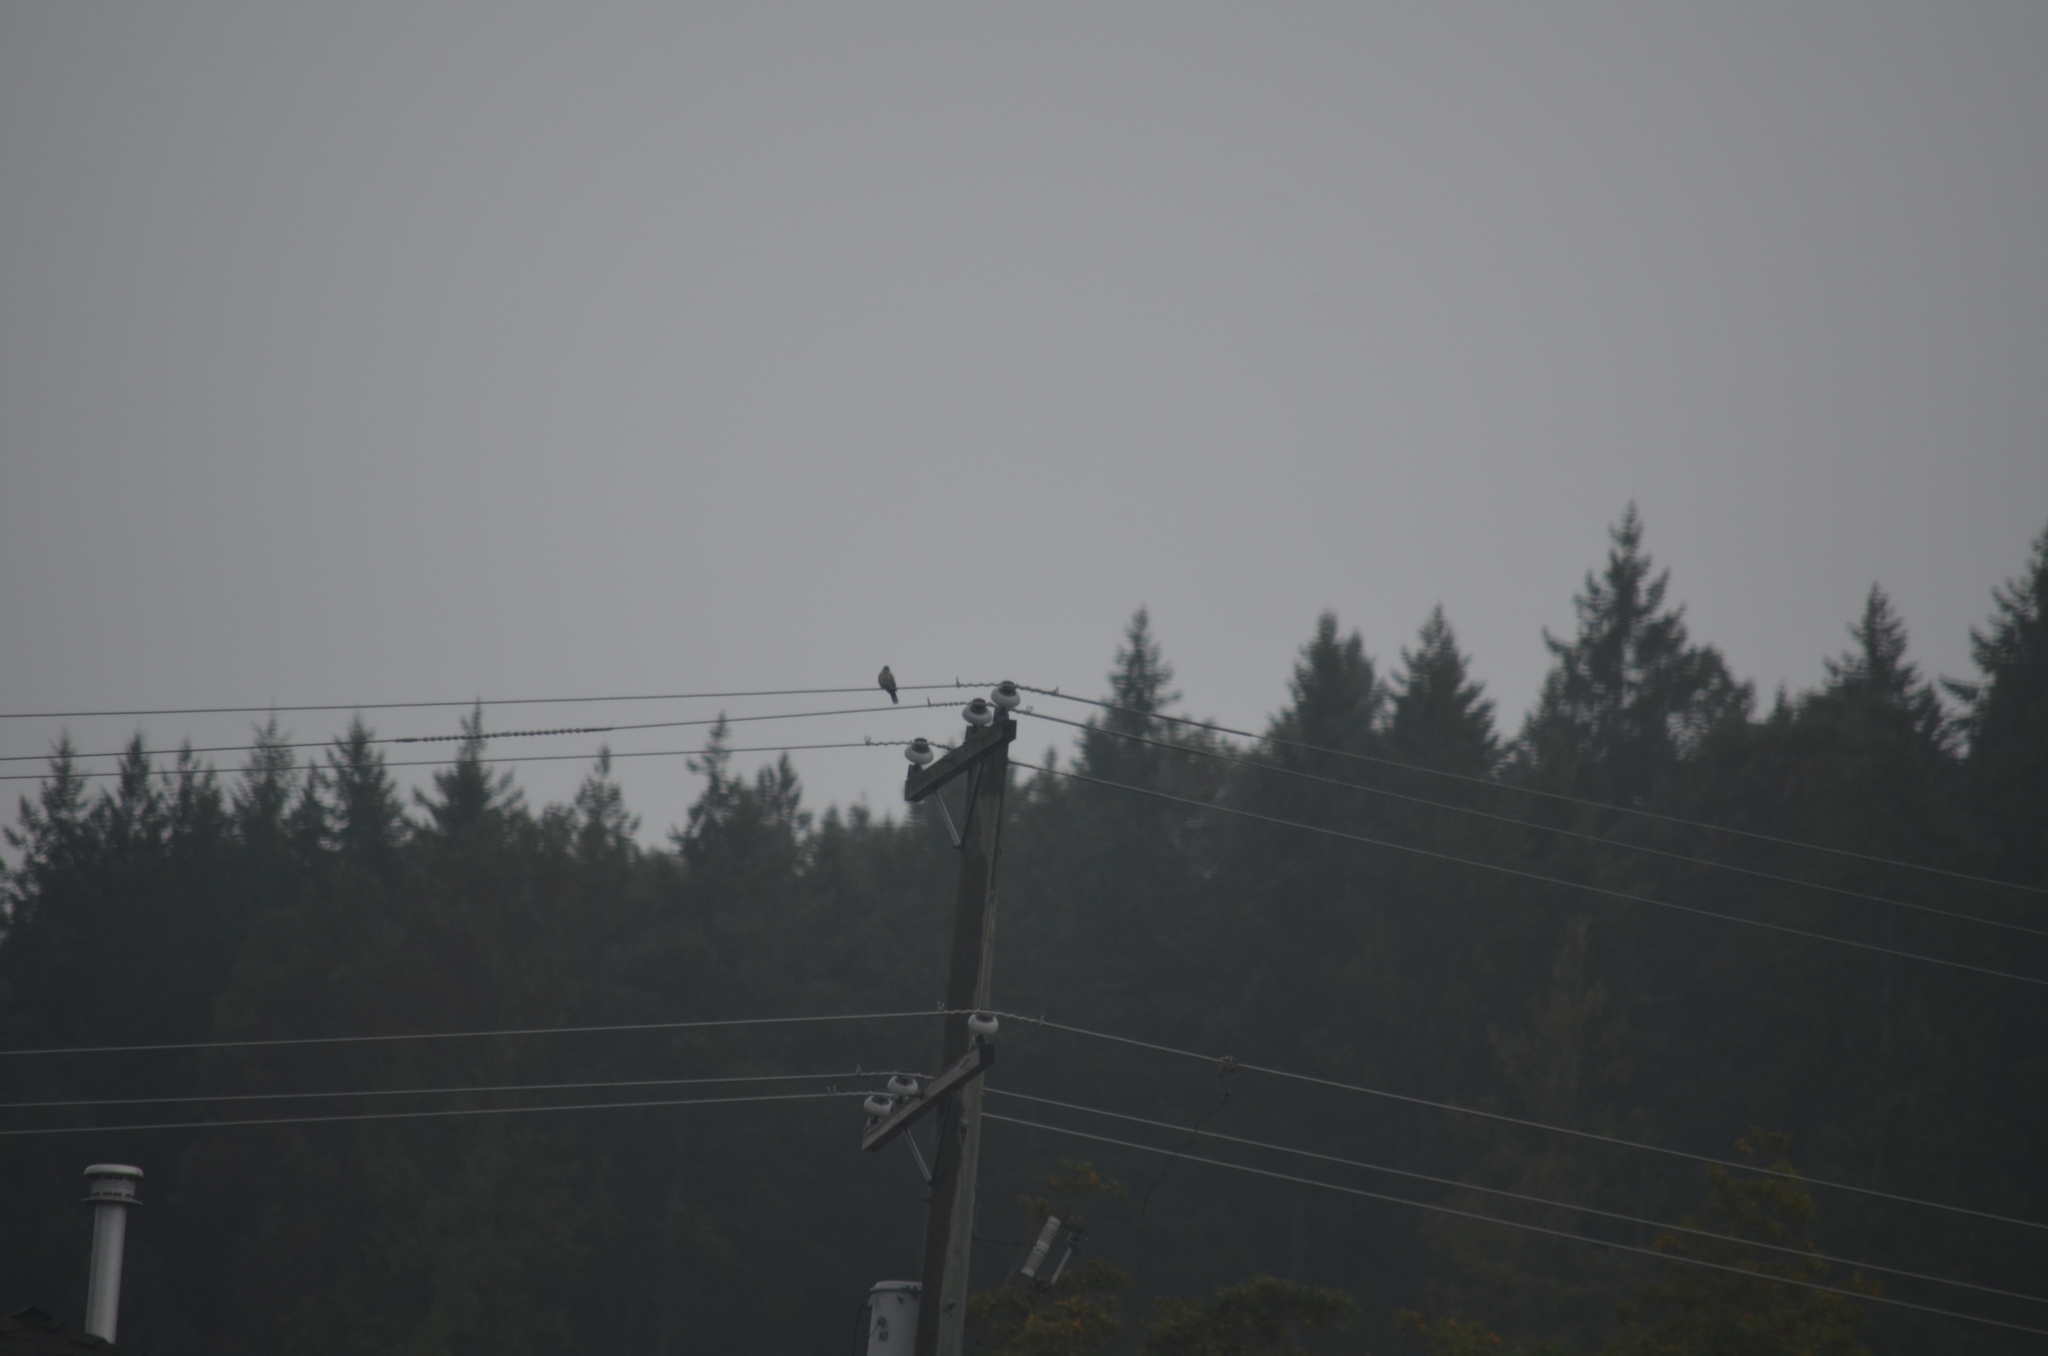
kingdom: Animalia
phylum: Chordata
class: Aves
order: Columbiformes
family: Columbidae
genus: Streptopelia
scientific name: Streptopelia decaocto
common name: Eurasian collared dove
